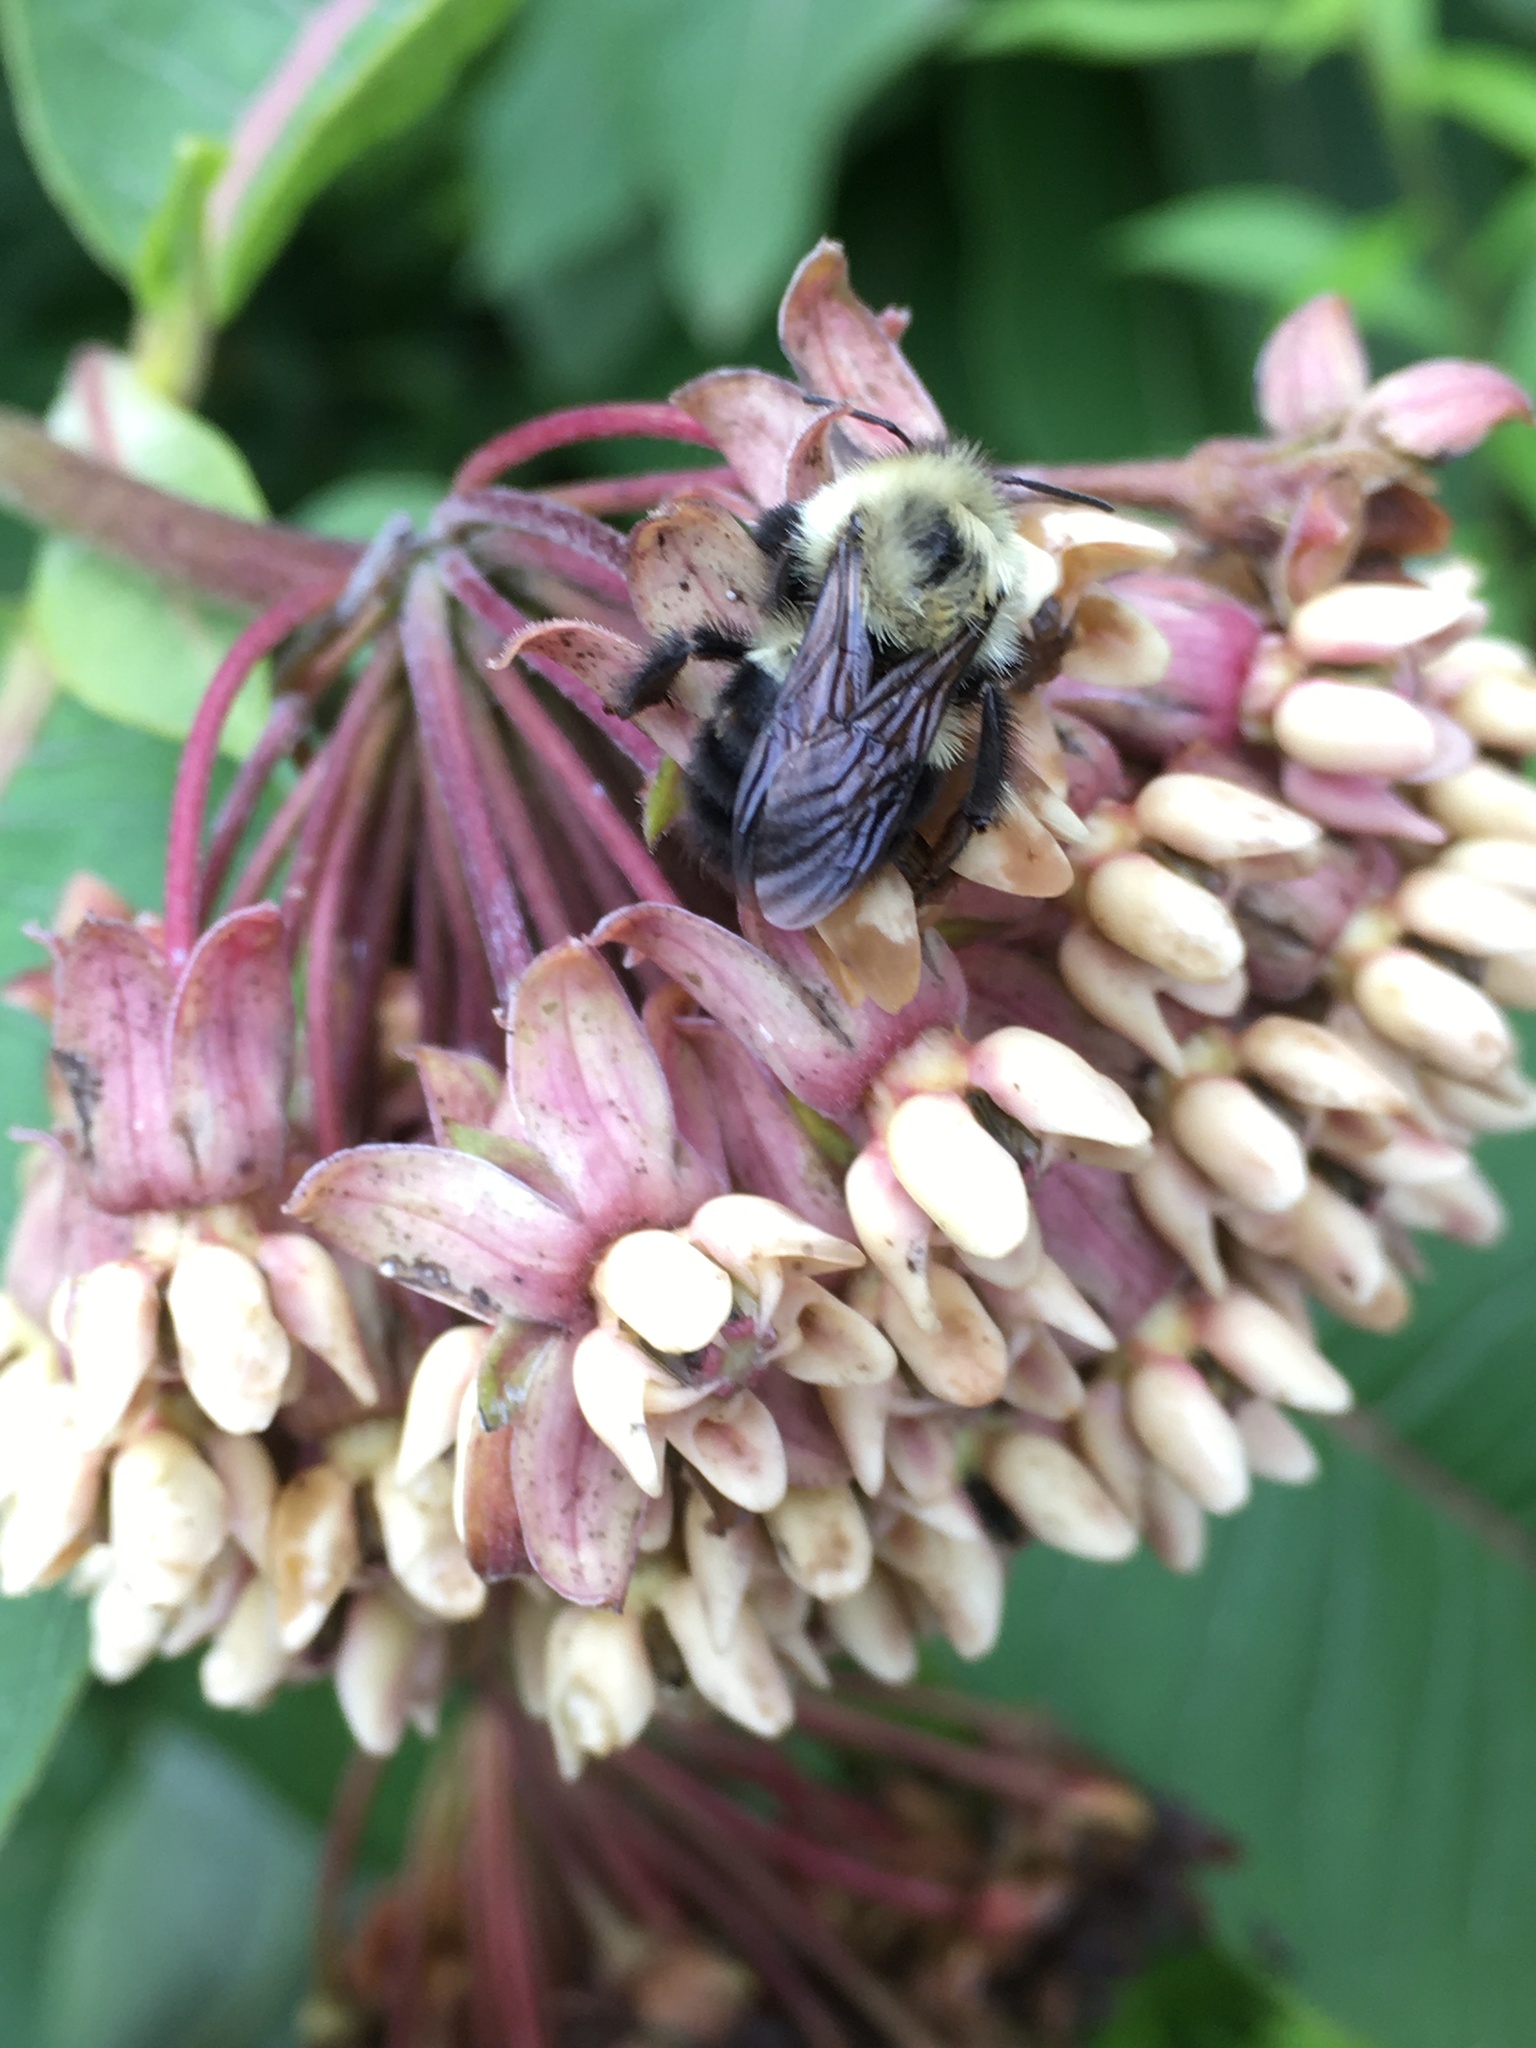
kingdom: Animalia
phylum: Arthropoda
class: Insecta
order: Hymenoptera
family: Apidae
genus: Bombus
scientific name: Bombus impatiens
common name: Common eastern bumble bee
